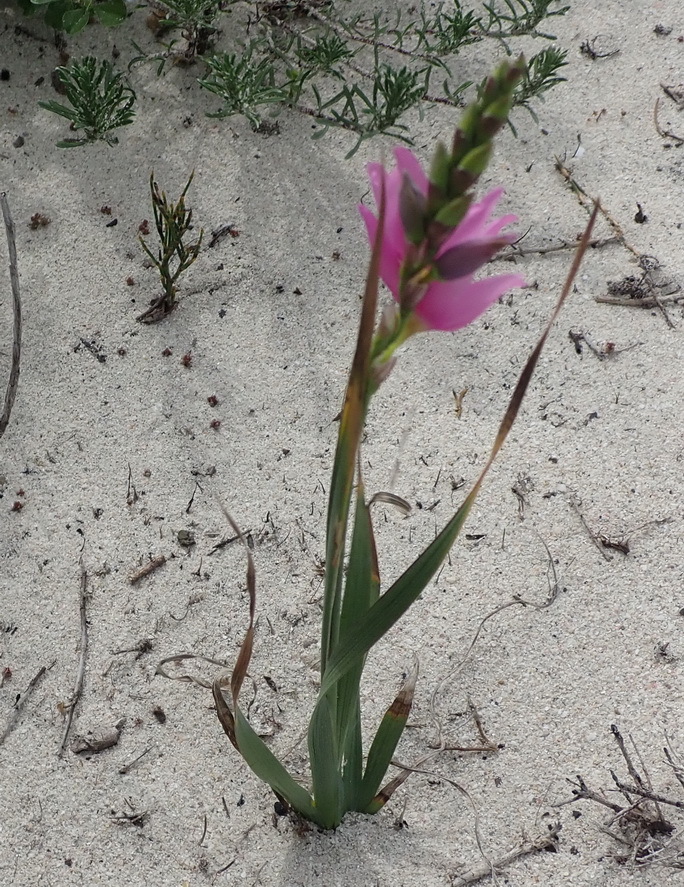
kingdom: Plantae
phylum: Tracheophyta
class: Liliopsida
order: Asparagales
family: Iridaceae
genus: Ixia
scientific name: Ixia flexuosa
